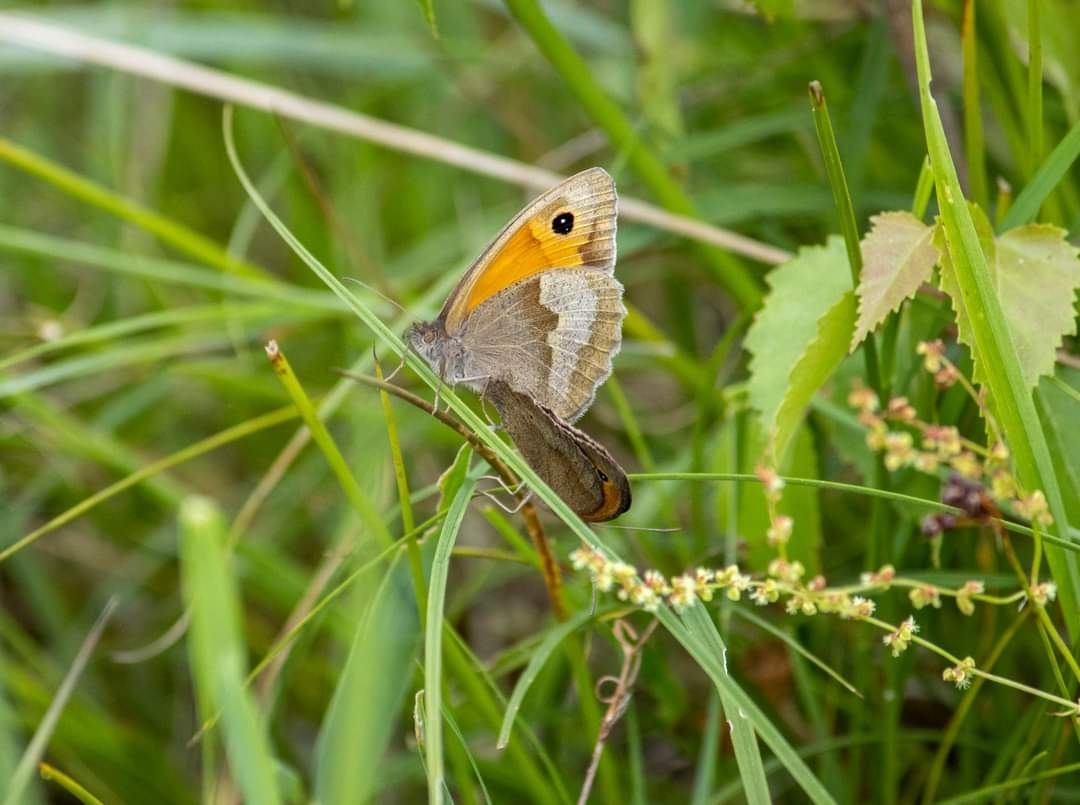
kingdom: Animalia
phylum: Arthropoda
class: Insecta
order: Lepidoptera
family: Nymphalidae
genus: Maniola
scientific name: Maniola jurtina
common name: Meadow brown
